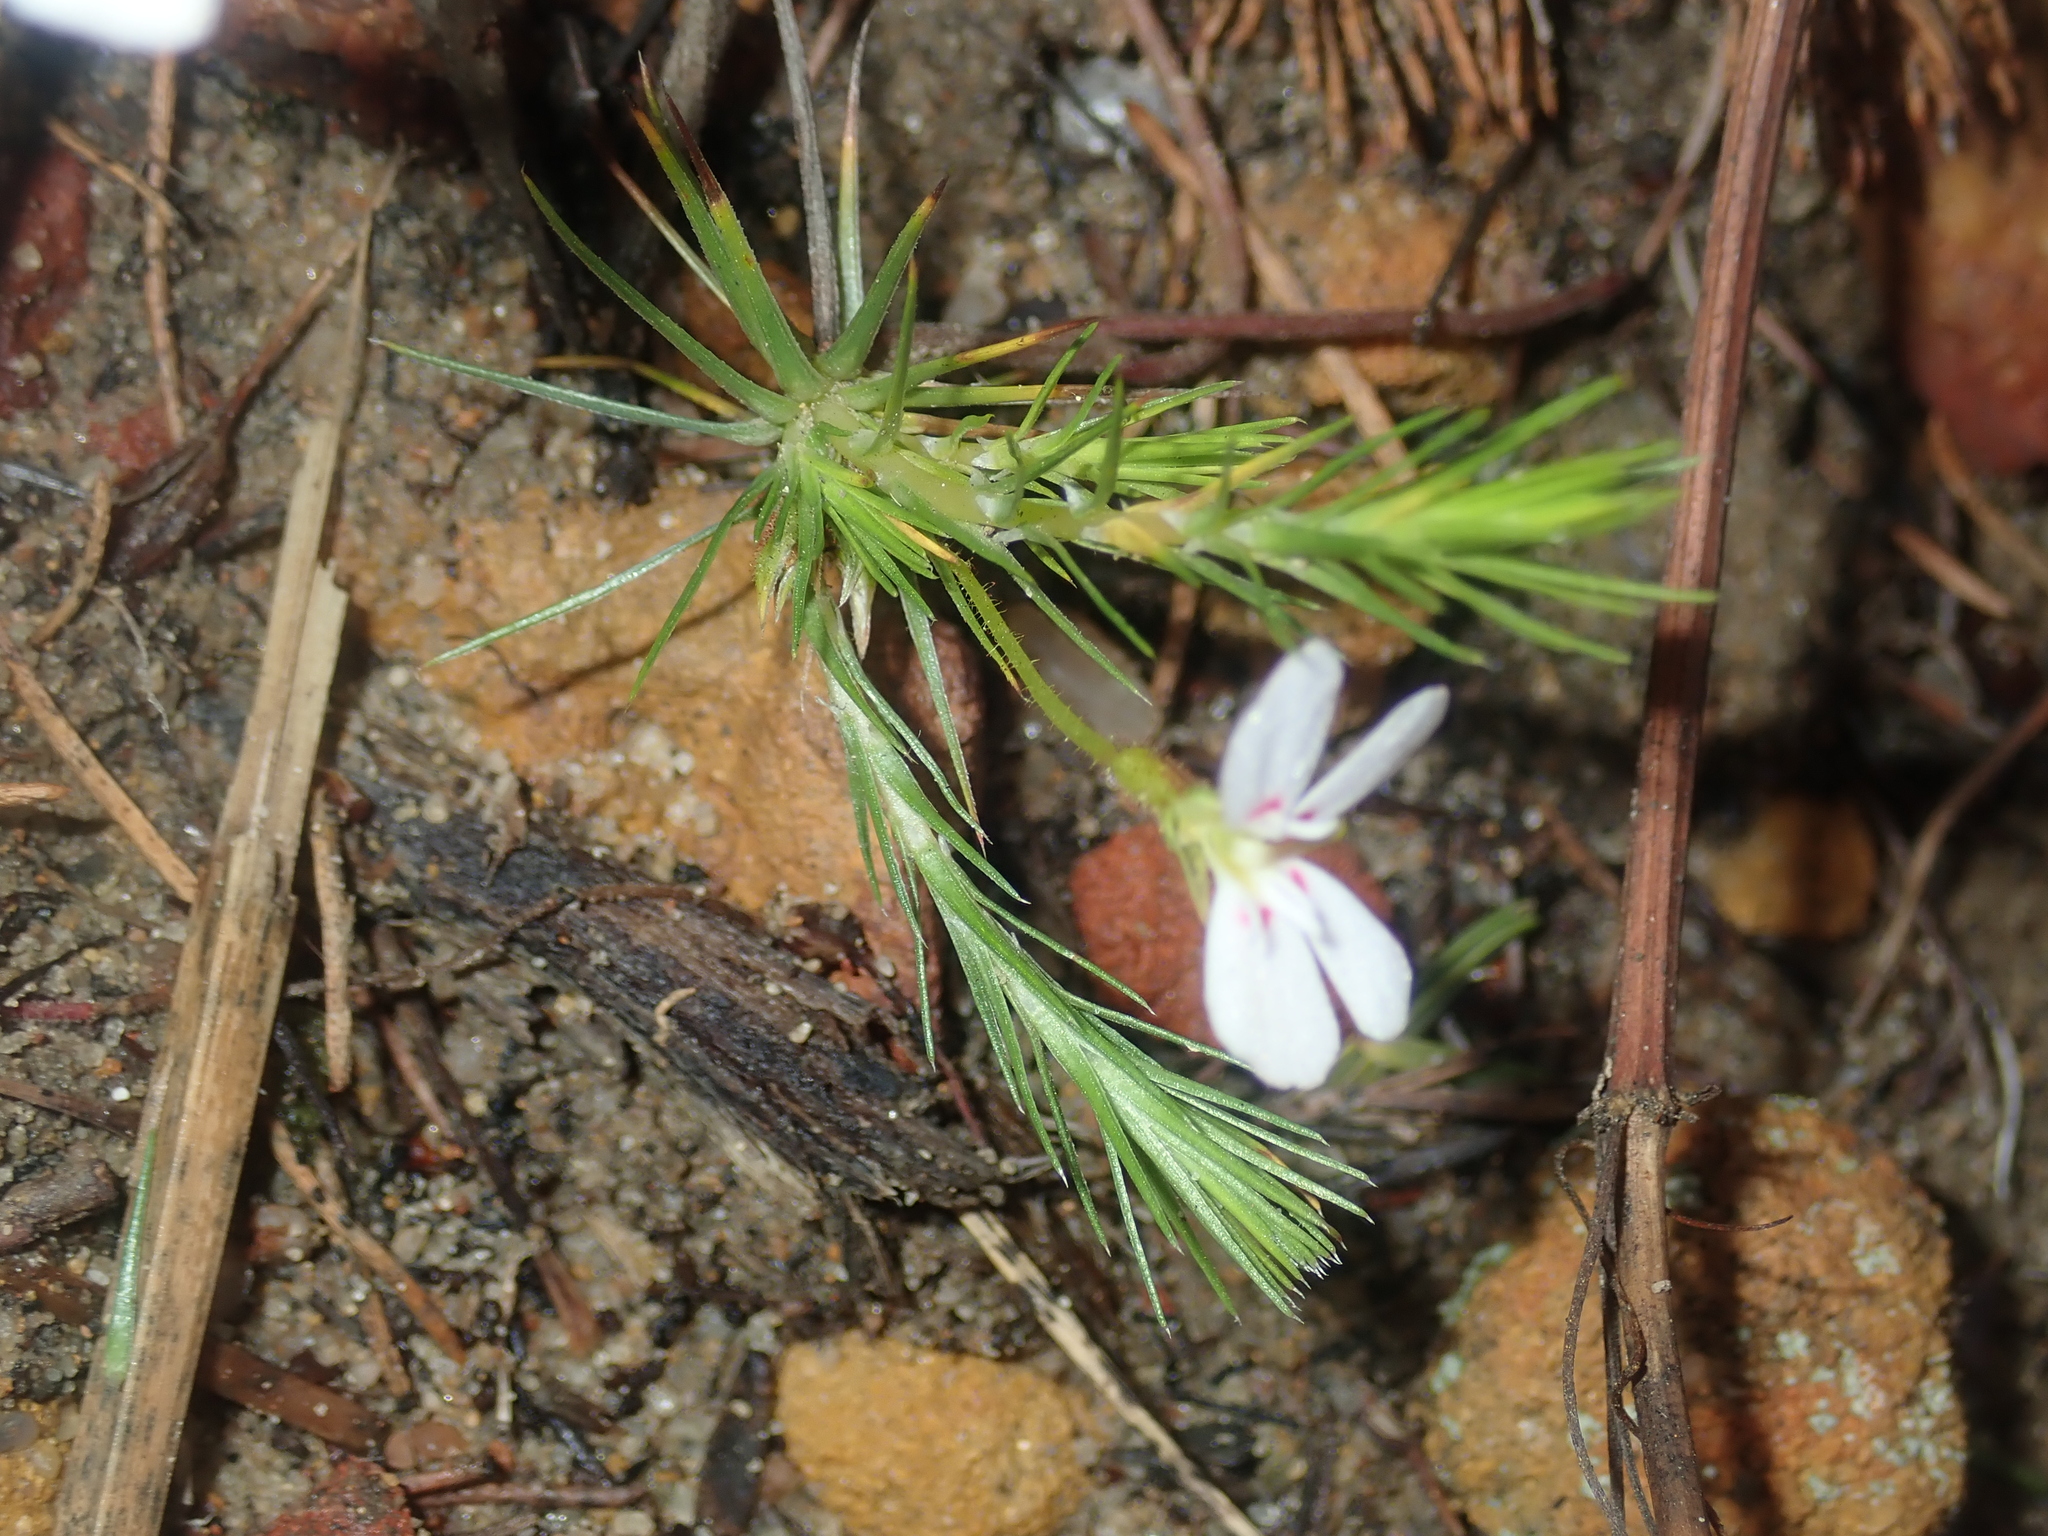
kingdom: Plantae
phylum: Tracheophyta
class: Magnoliopsida
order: Asterales
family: Stylidiaceae
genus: Stylidium
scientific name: Stylidium flagellum
